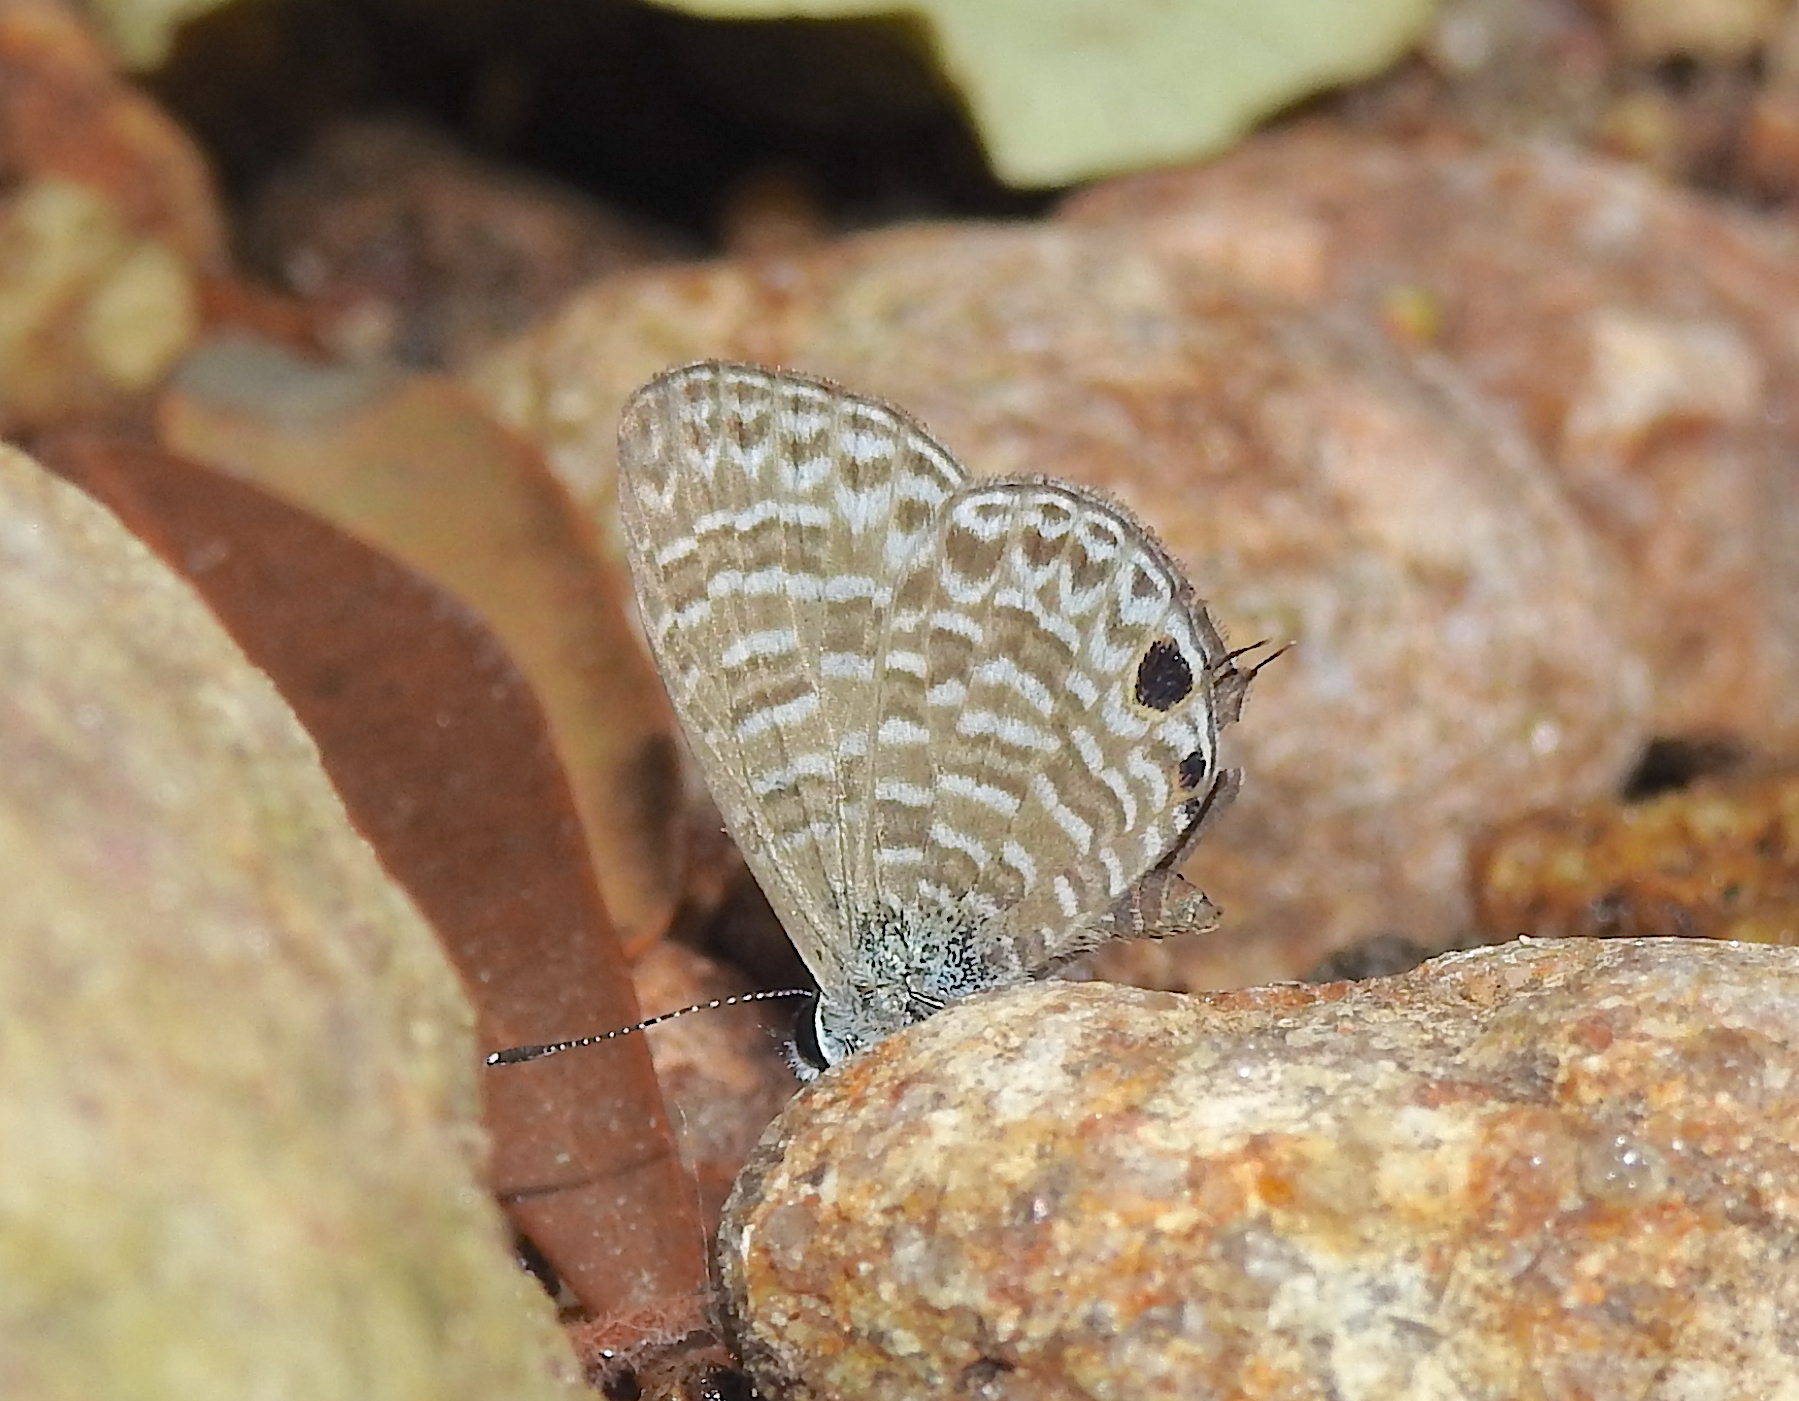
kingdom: Animalia
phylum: Arthropoda
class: Insecta
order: Lepidoptera
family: Lycaenidae
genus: Nacaduba
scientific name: Nacaduba sinhala
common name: Pale ceylon line blue
